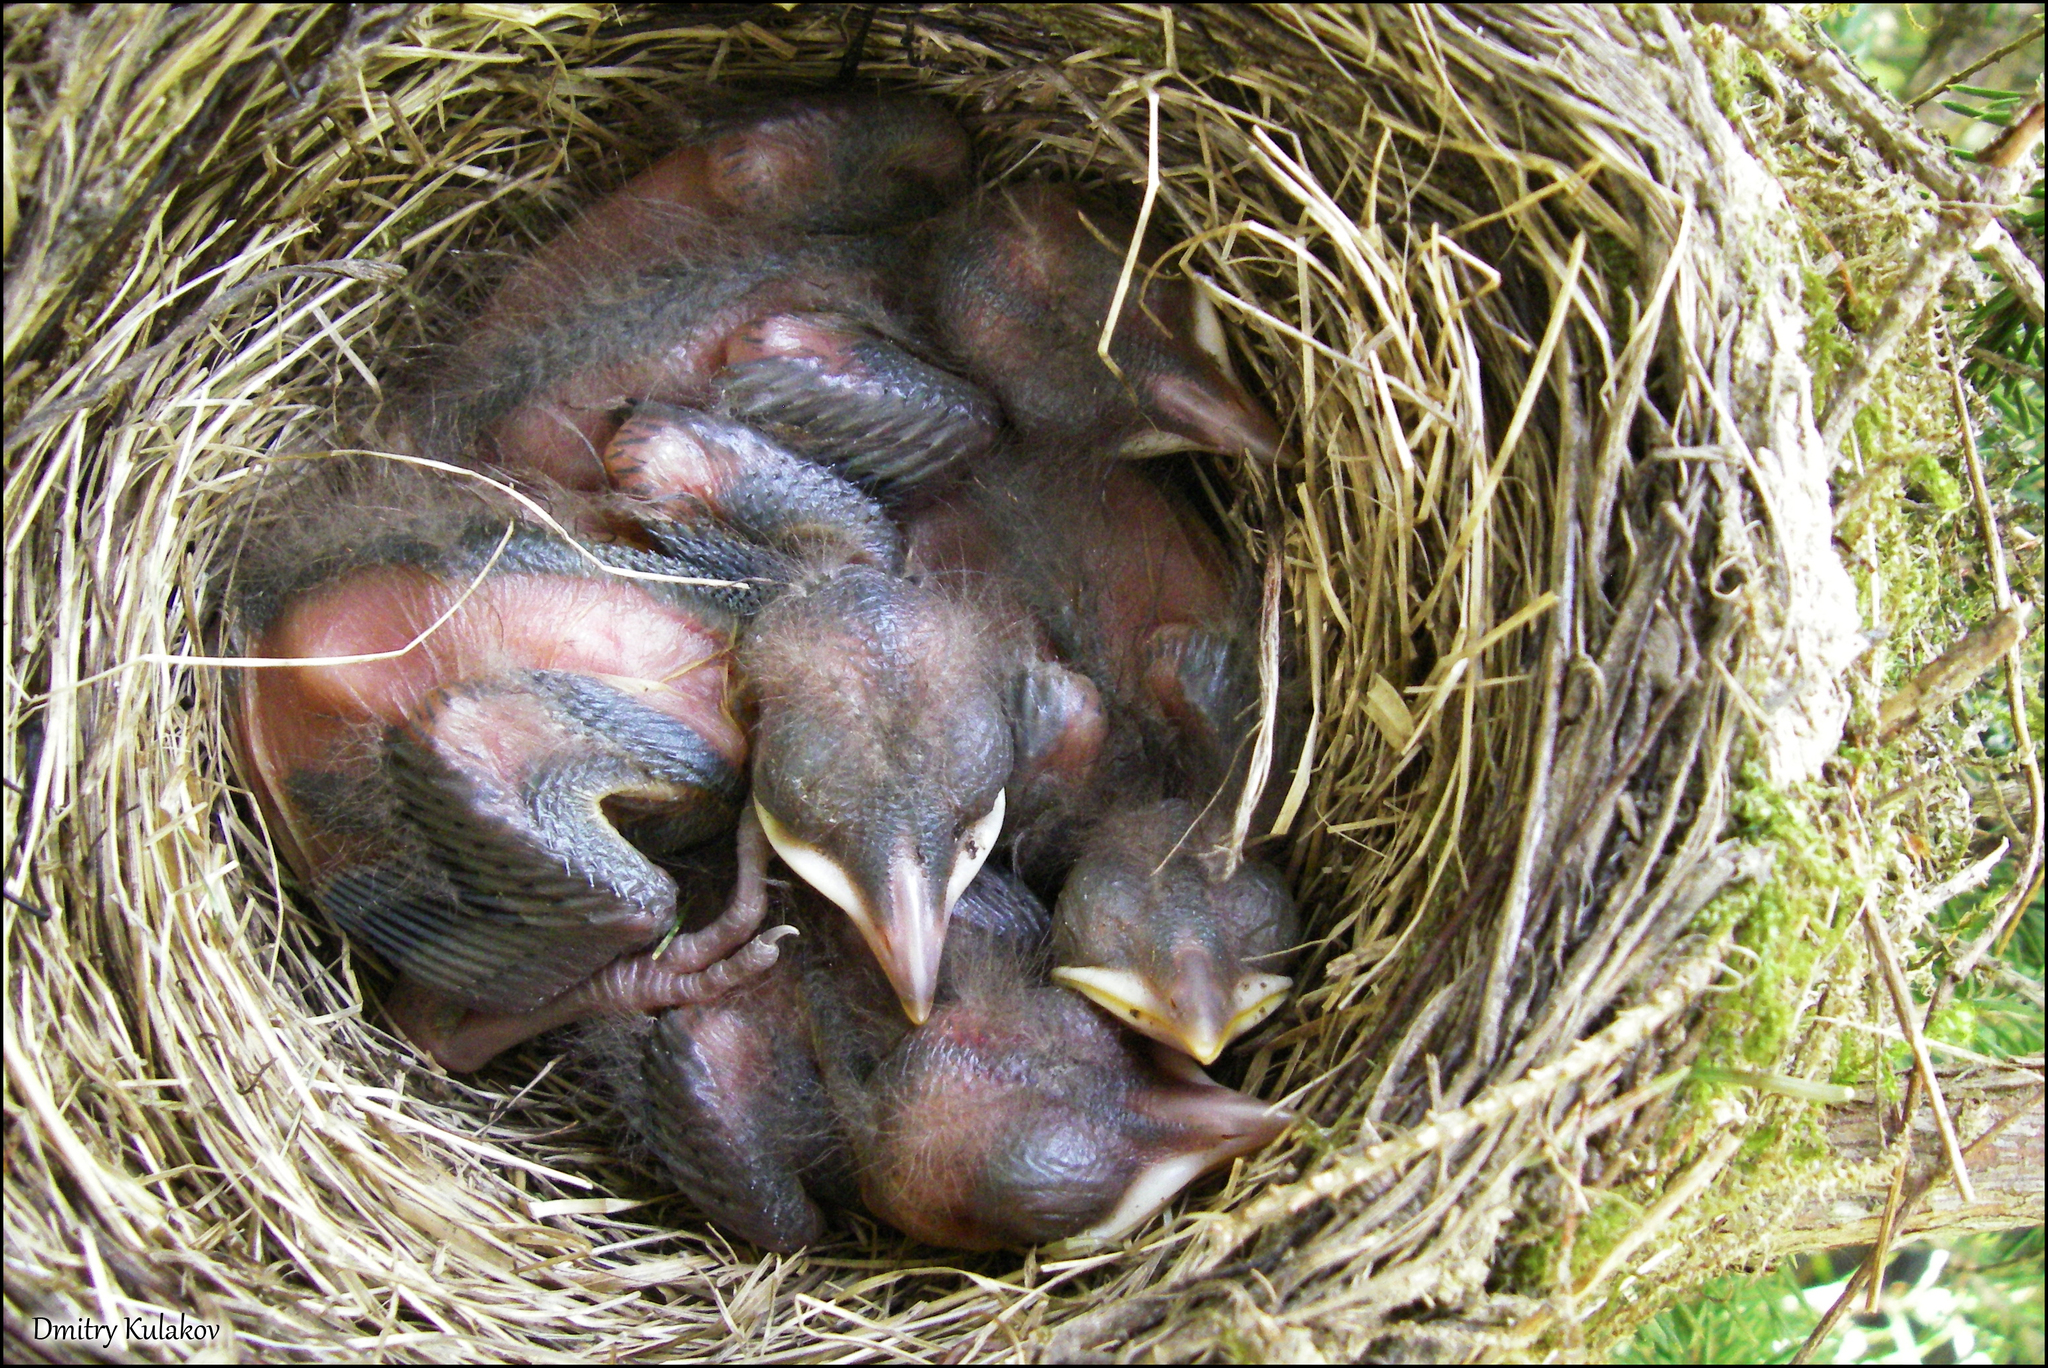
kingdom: Animalia
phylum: Chordata
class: Aves
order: Passeriformes
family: Turdidae
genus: Turdus
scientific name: Turdus merula
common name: Common blackbird
